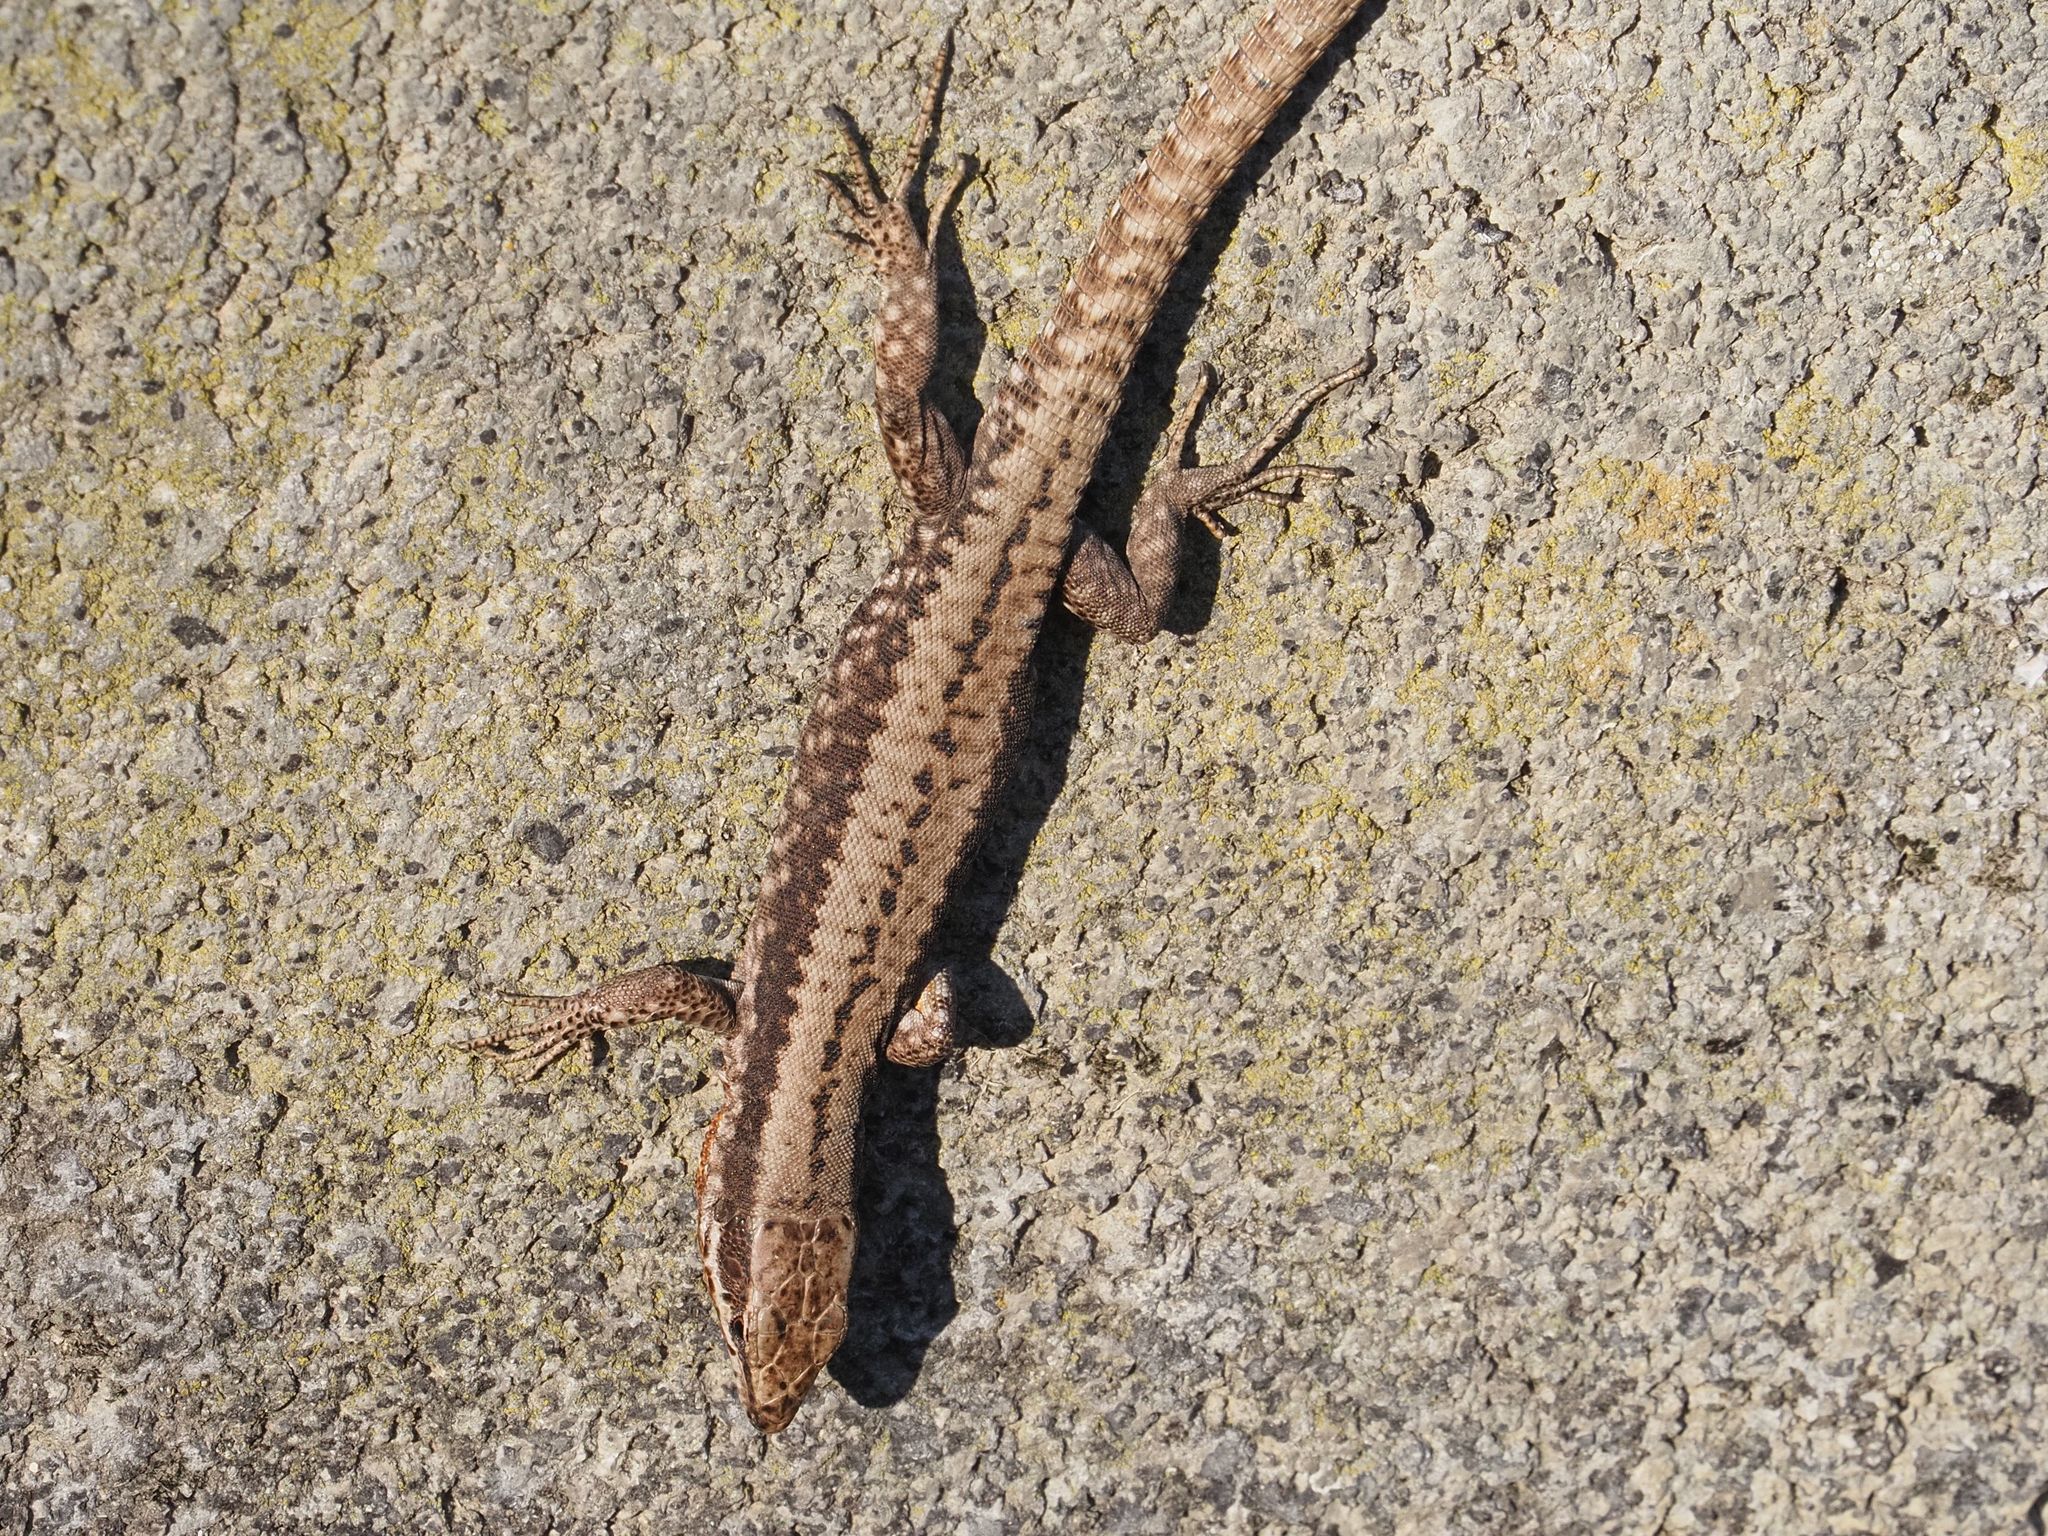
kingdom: Animalia
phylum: Chordata
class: Squamata
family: Lacertidae
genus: Podarcis
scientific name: Podarcis muralis
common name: Common wall lizard
